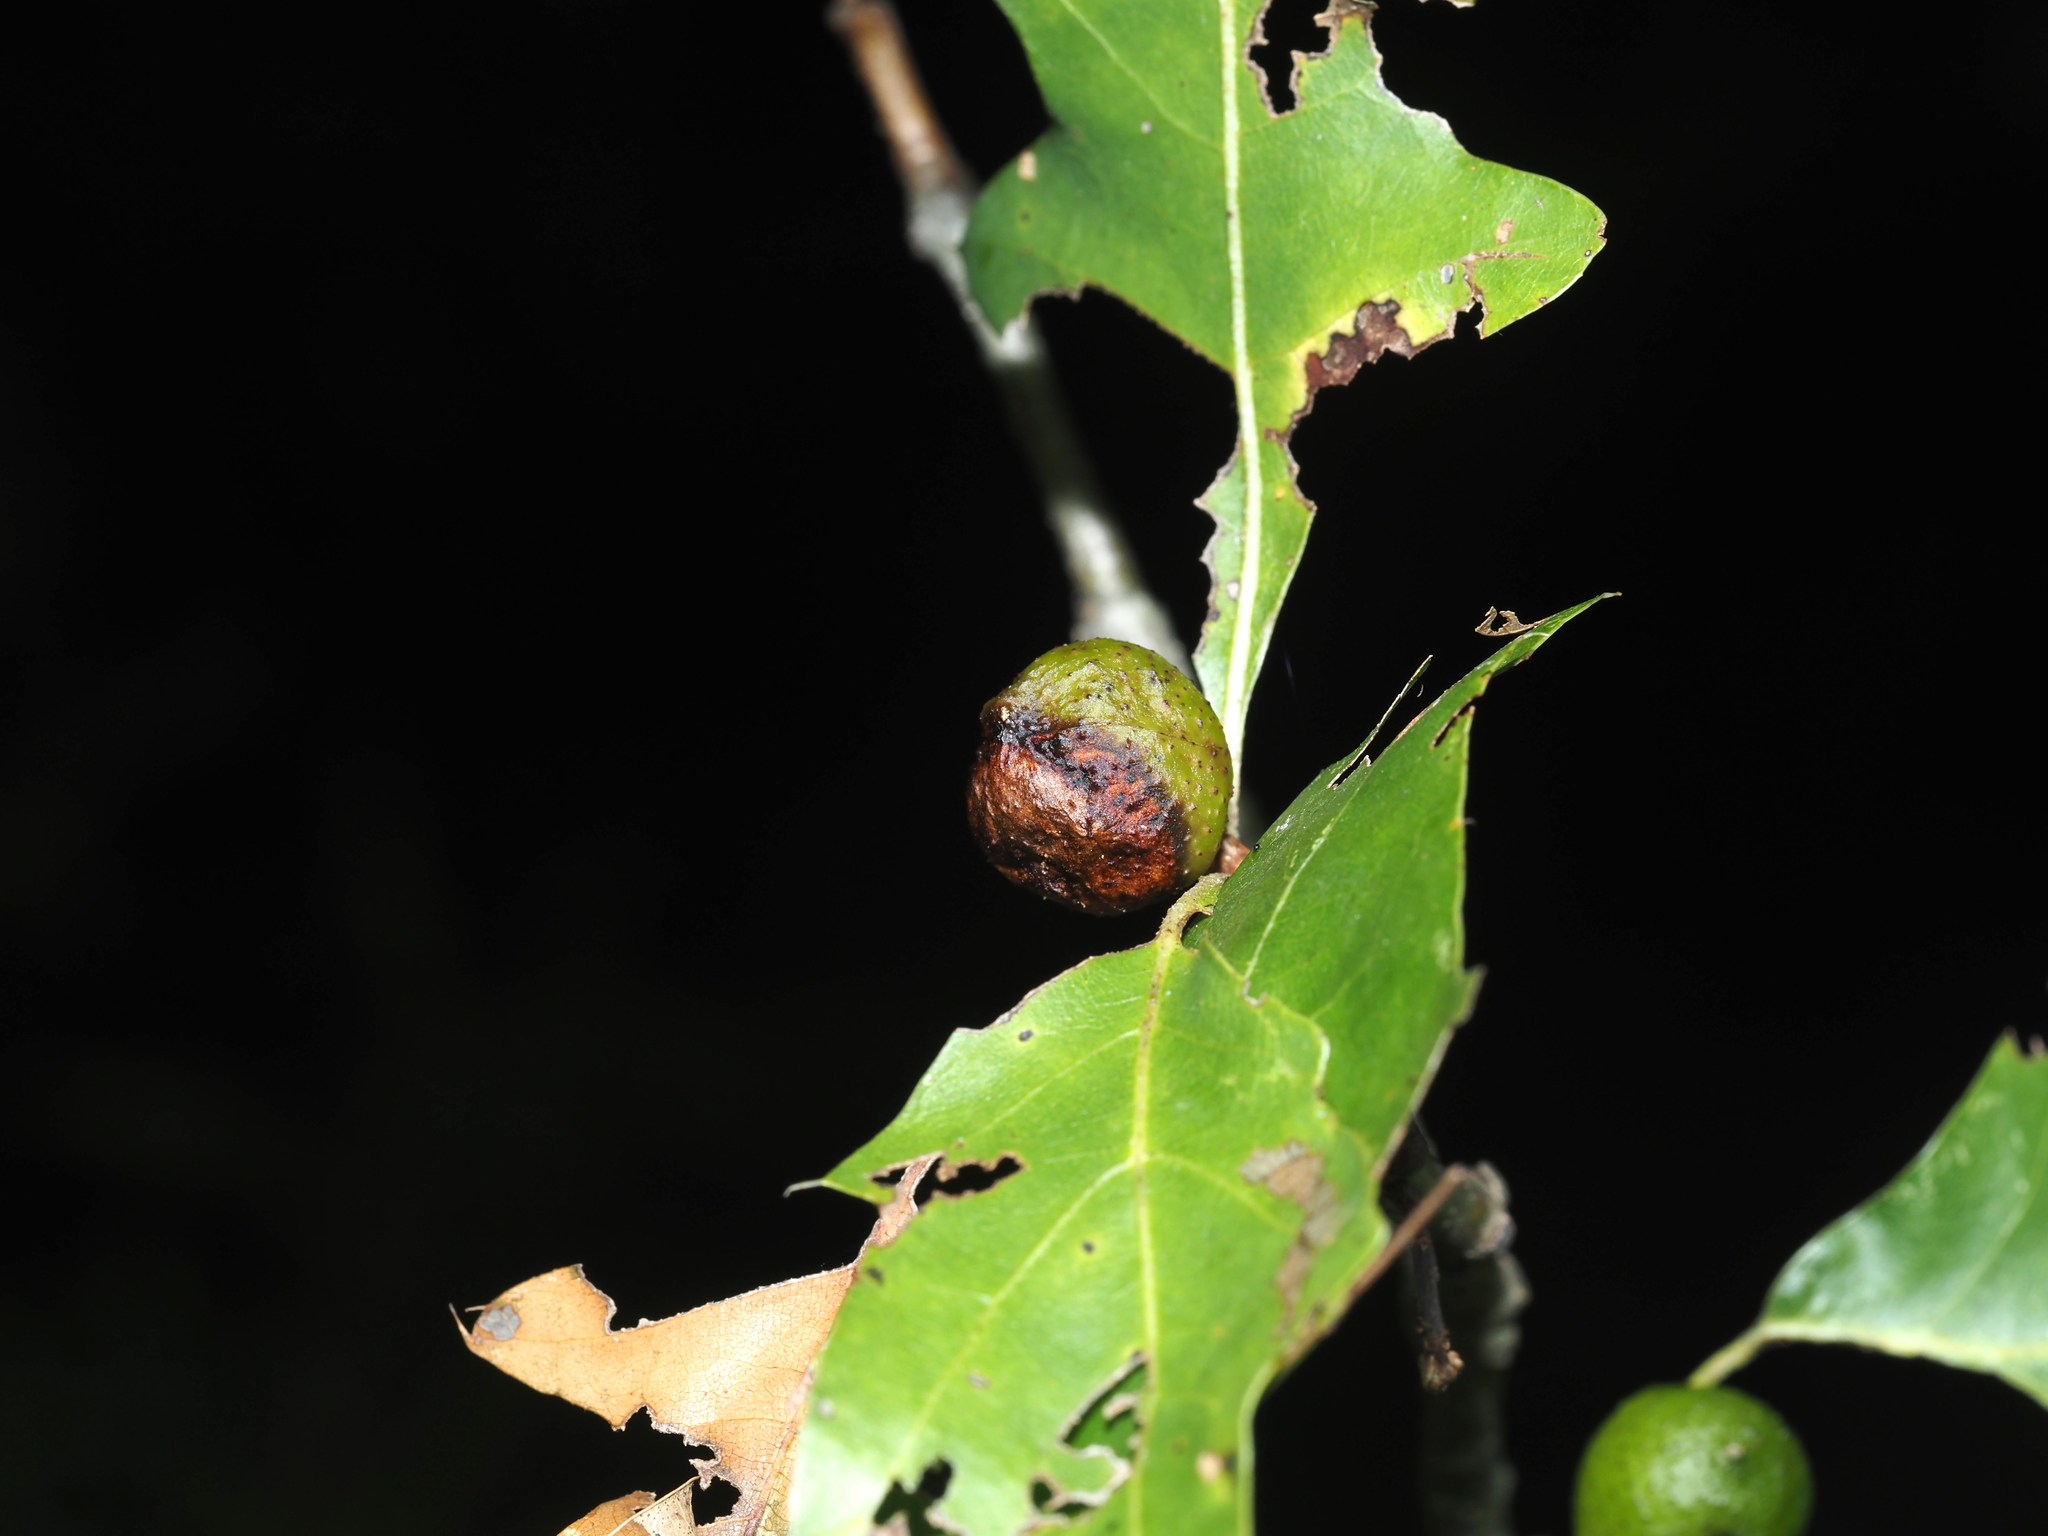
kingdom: Animalia
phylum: Arthropoda
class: Insecta
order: Hymenoptera
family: Cynipidae
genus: Amphibolips
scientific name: Amphibolips
